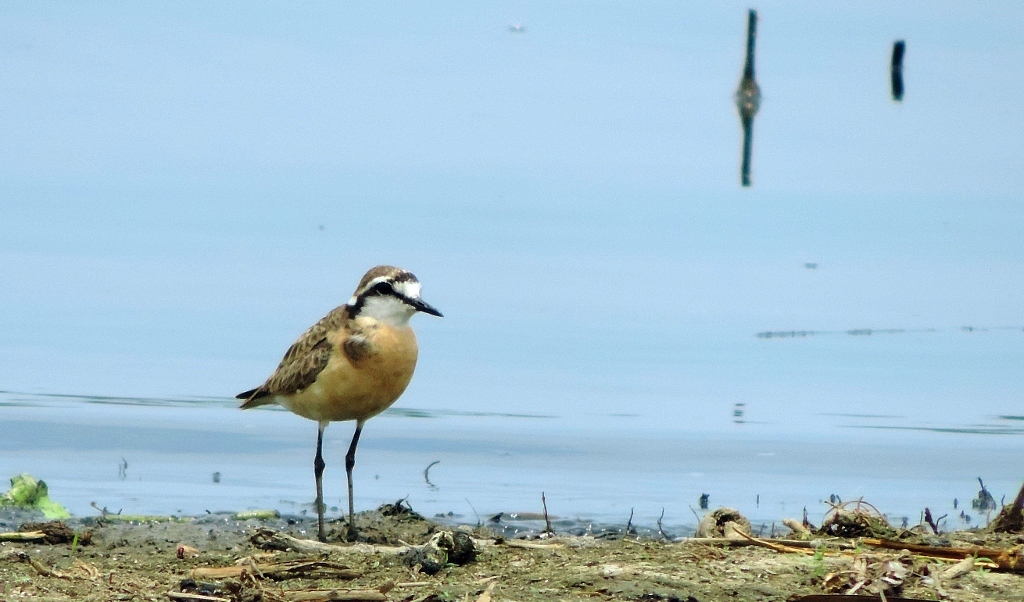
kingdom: Animalia
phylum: Chordata
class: Aves
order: Charadriiformes
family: Charadriidae
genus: Anarhynchus
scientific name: Anarhynchus
